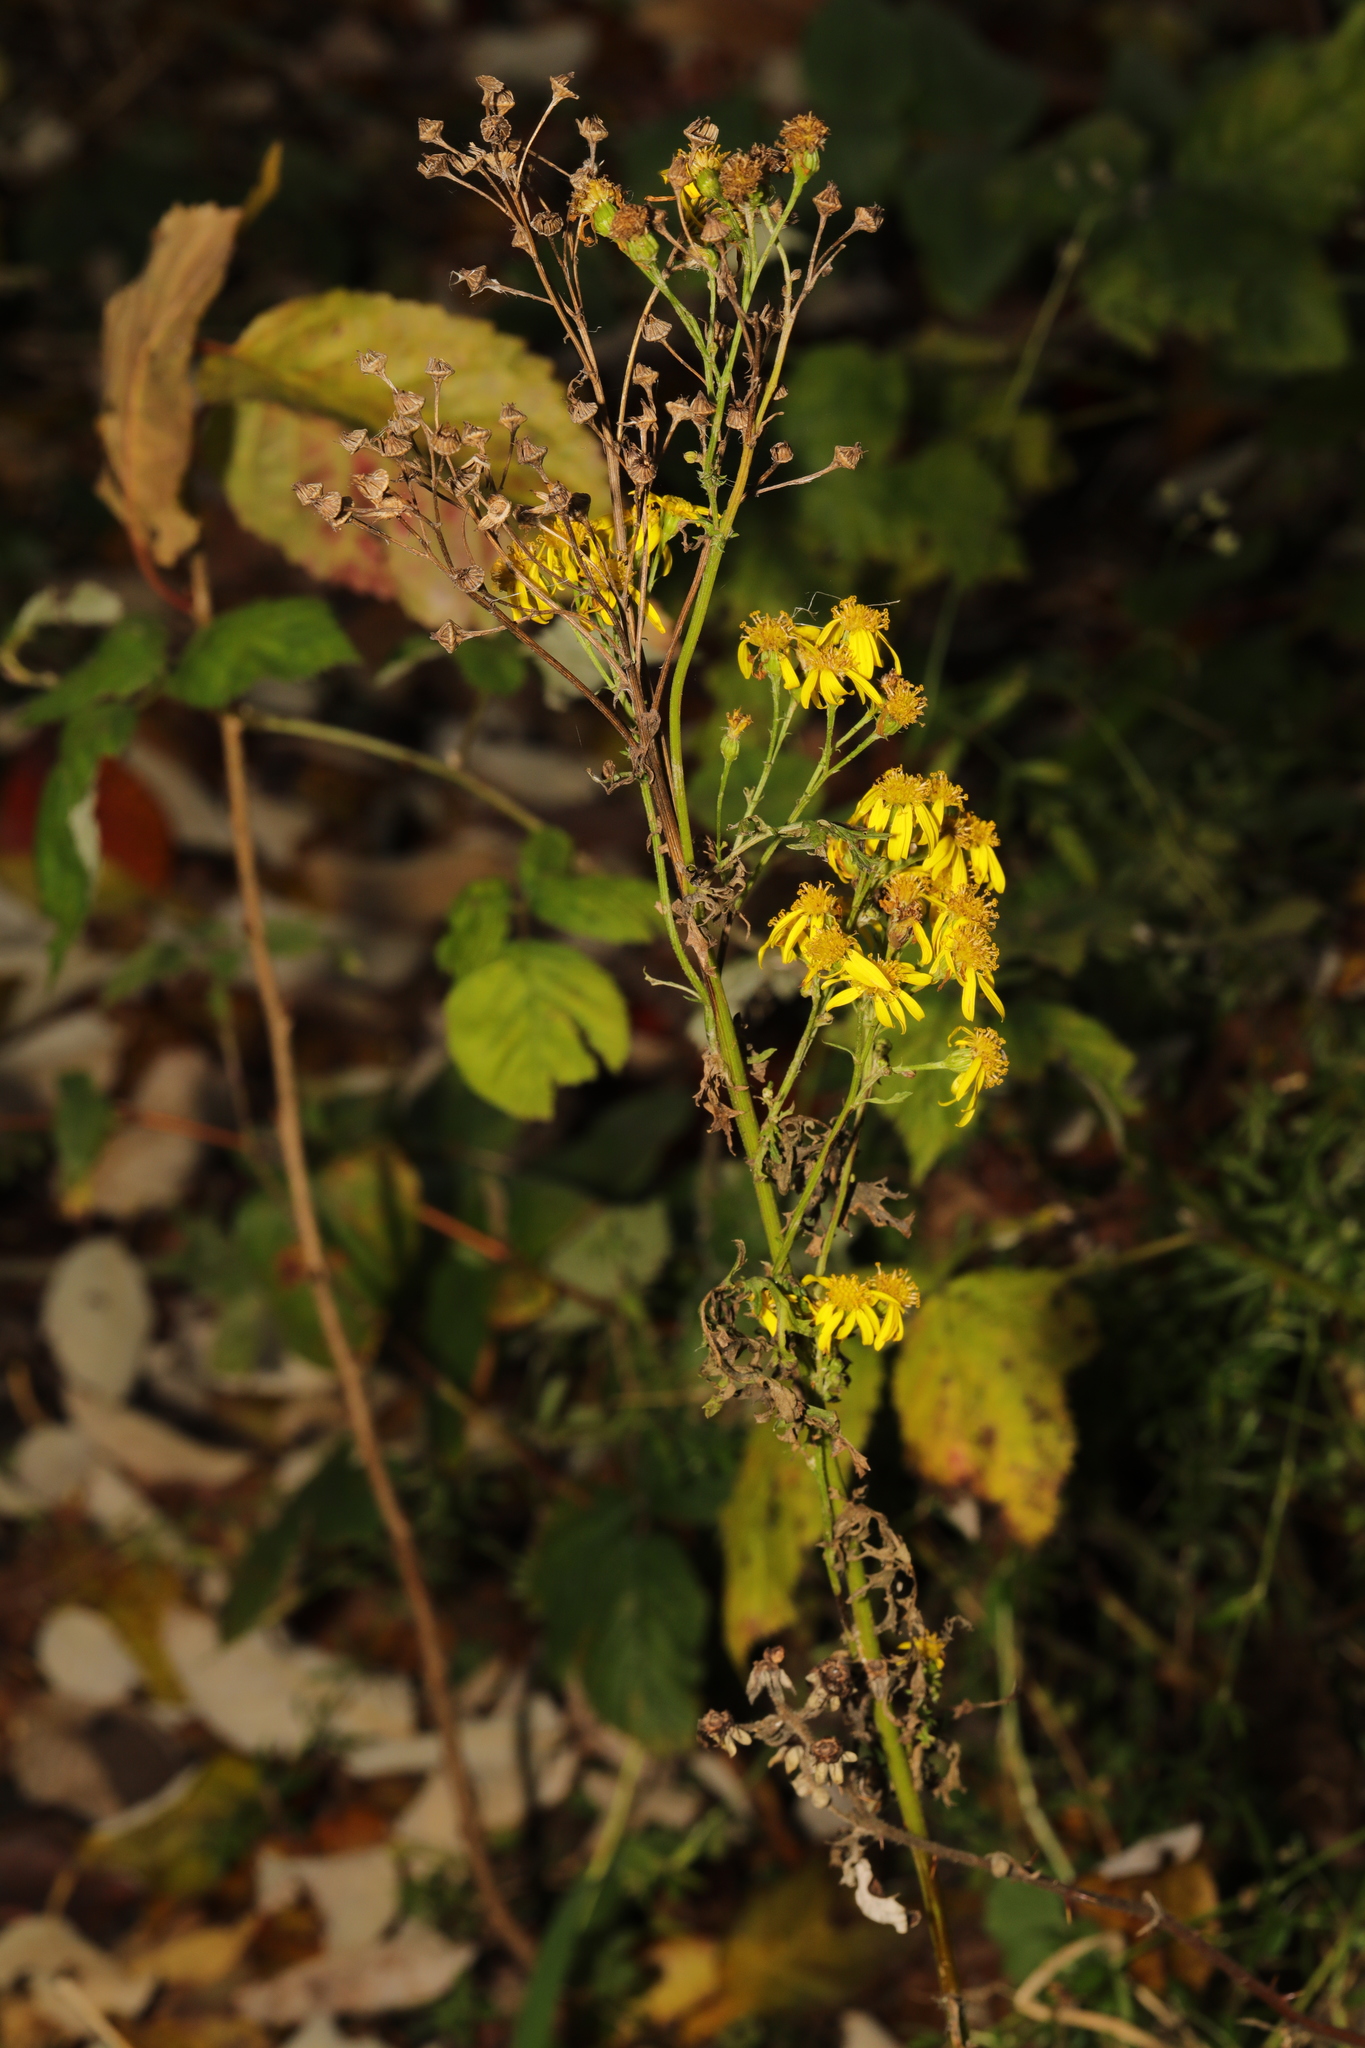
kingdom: Plantae
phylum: Tracheophyta
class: Magnoliopsida
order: Asterales
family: Asteraceae
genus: Jacobaea
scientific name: Jacobaea vulgaris
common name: Stinking willie
